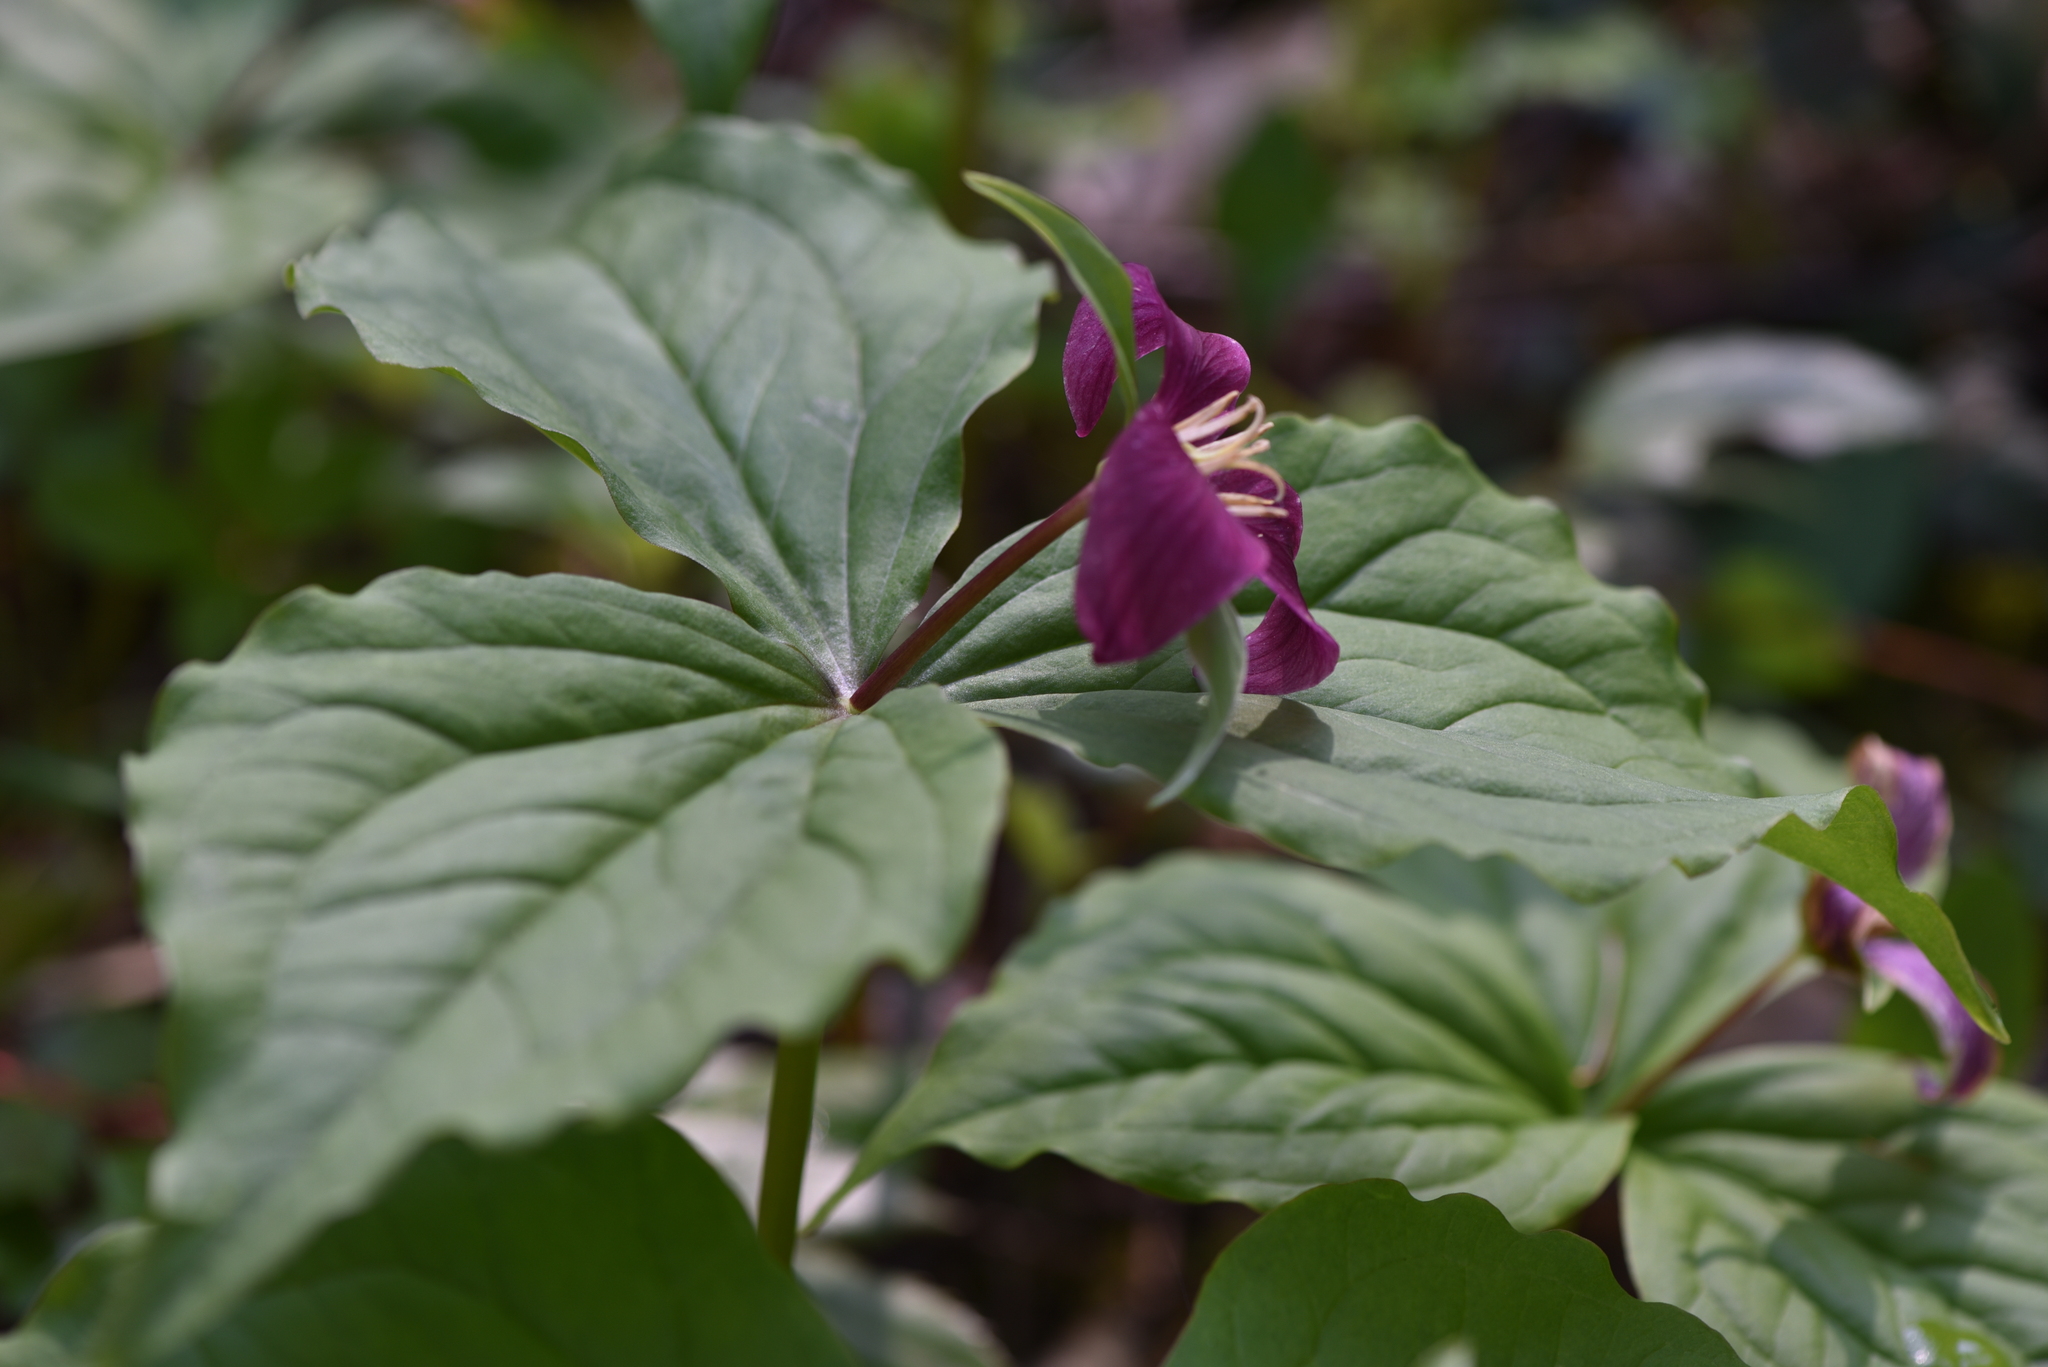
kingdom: Plantae
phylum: Tracheophyta
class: Liliopsida
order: Liliales
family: Melanthiaceae
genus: Trillium
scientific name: Trillium ovatum
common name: Pacific trillium
